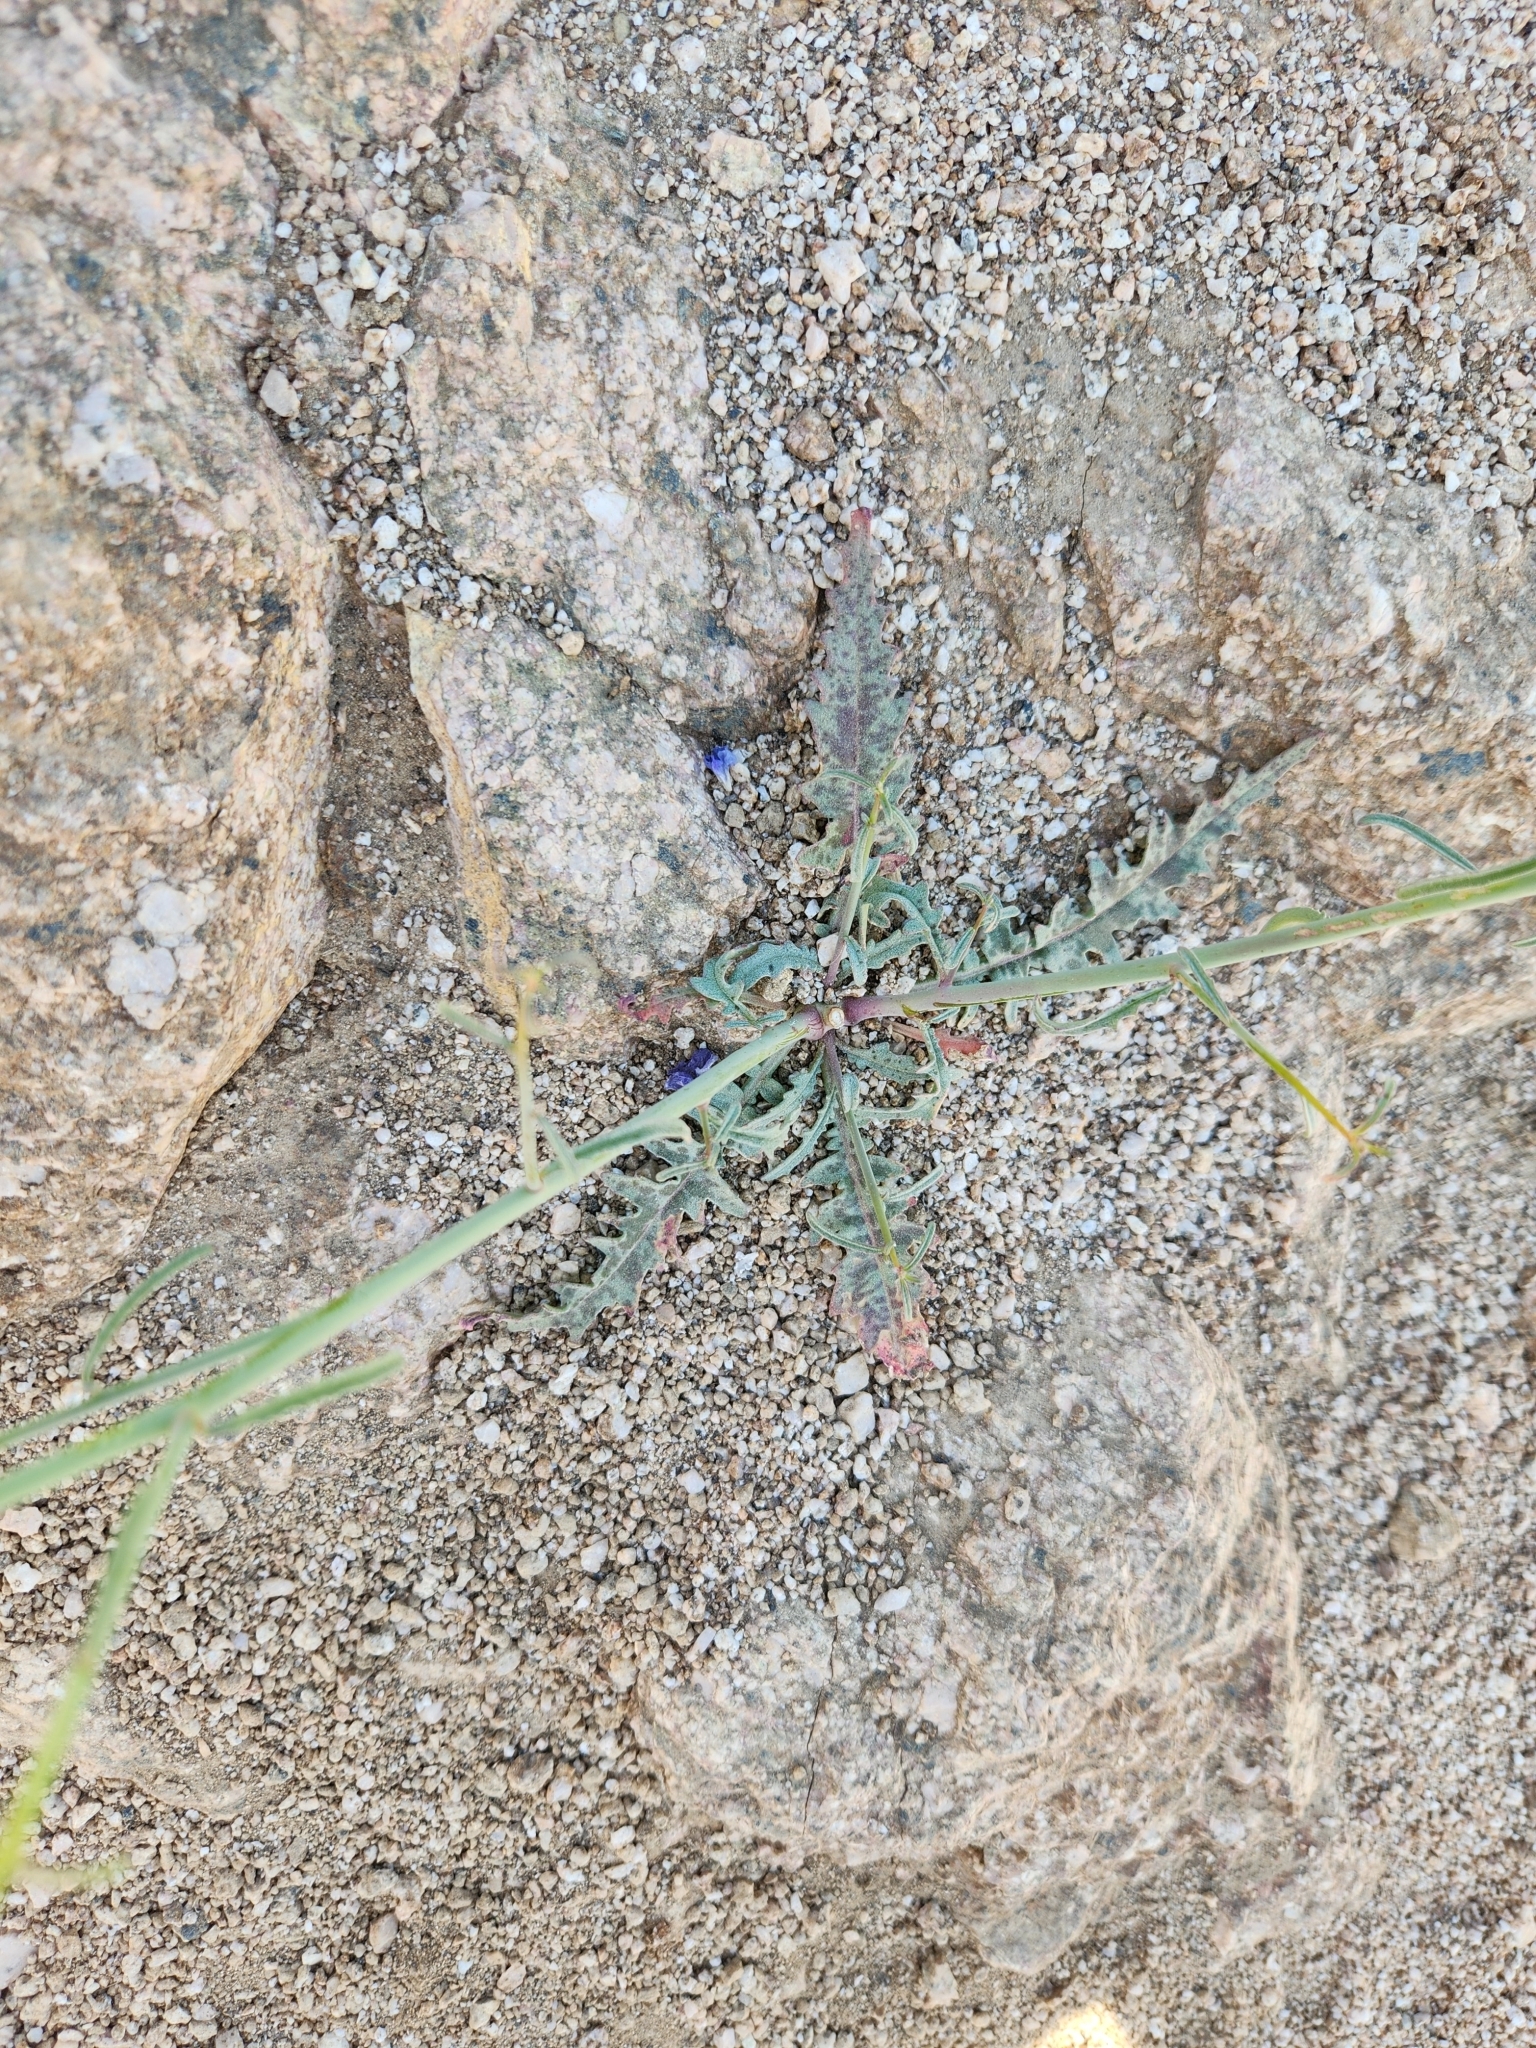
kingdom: Plantae
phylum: Tracheophyta
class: Magnoliopsida
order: Myrtales
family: Onagraceae
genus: Eulobus
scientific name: Eulobus californicus
